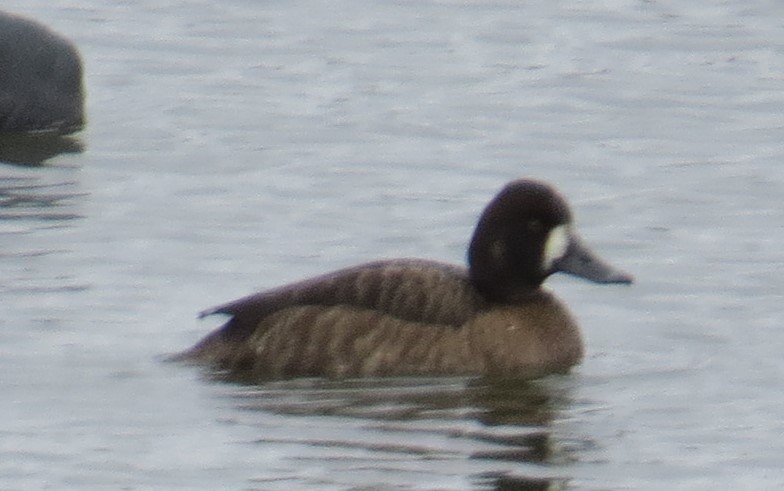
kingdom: Animalia
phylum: Chordata
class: Aves
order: Anseriformes
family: Anatidae
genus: Aythya
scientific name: Aythya affinis
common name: Lesser scaup
